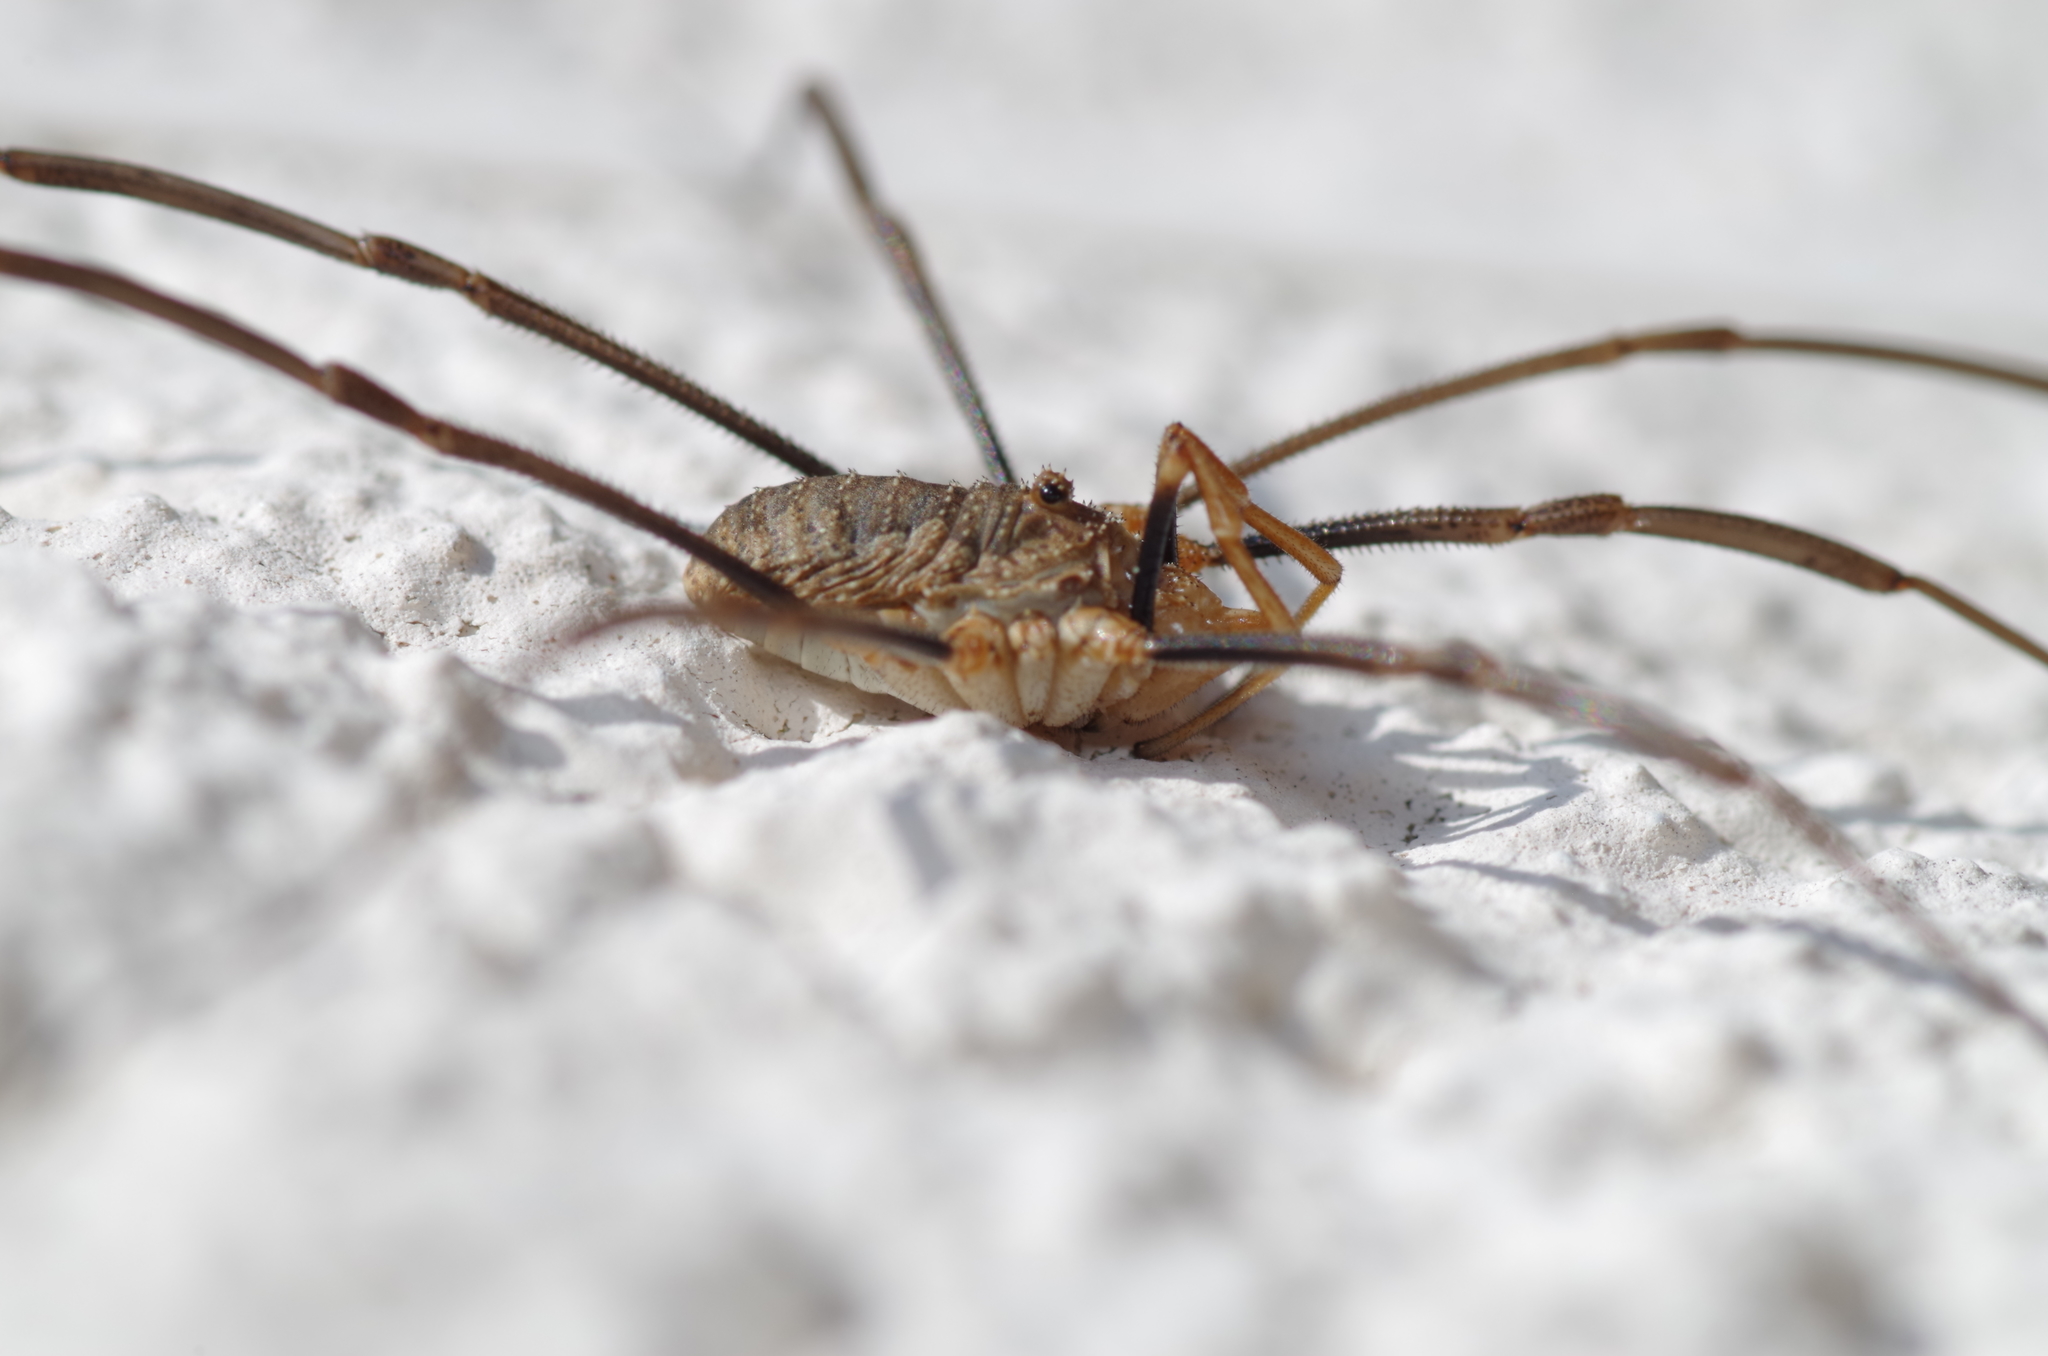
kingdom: Animalia
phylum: Arthropoda
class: Arachnida
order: Opiliones
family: Phalangiidae
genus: Phalangium
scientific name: Phalangium opilio
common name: Daddy longleg
